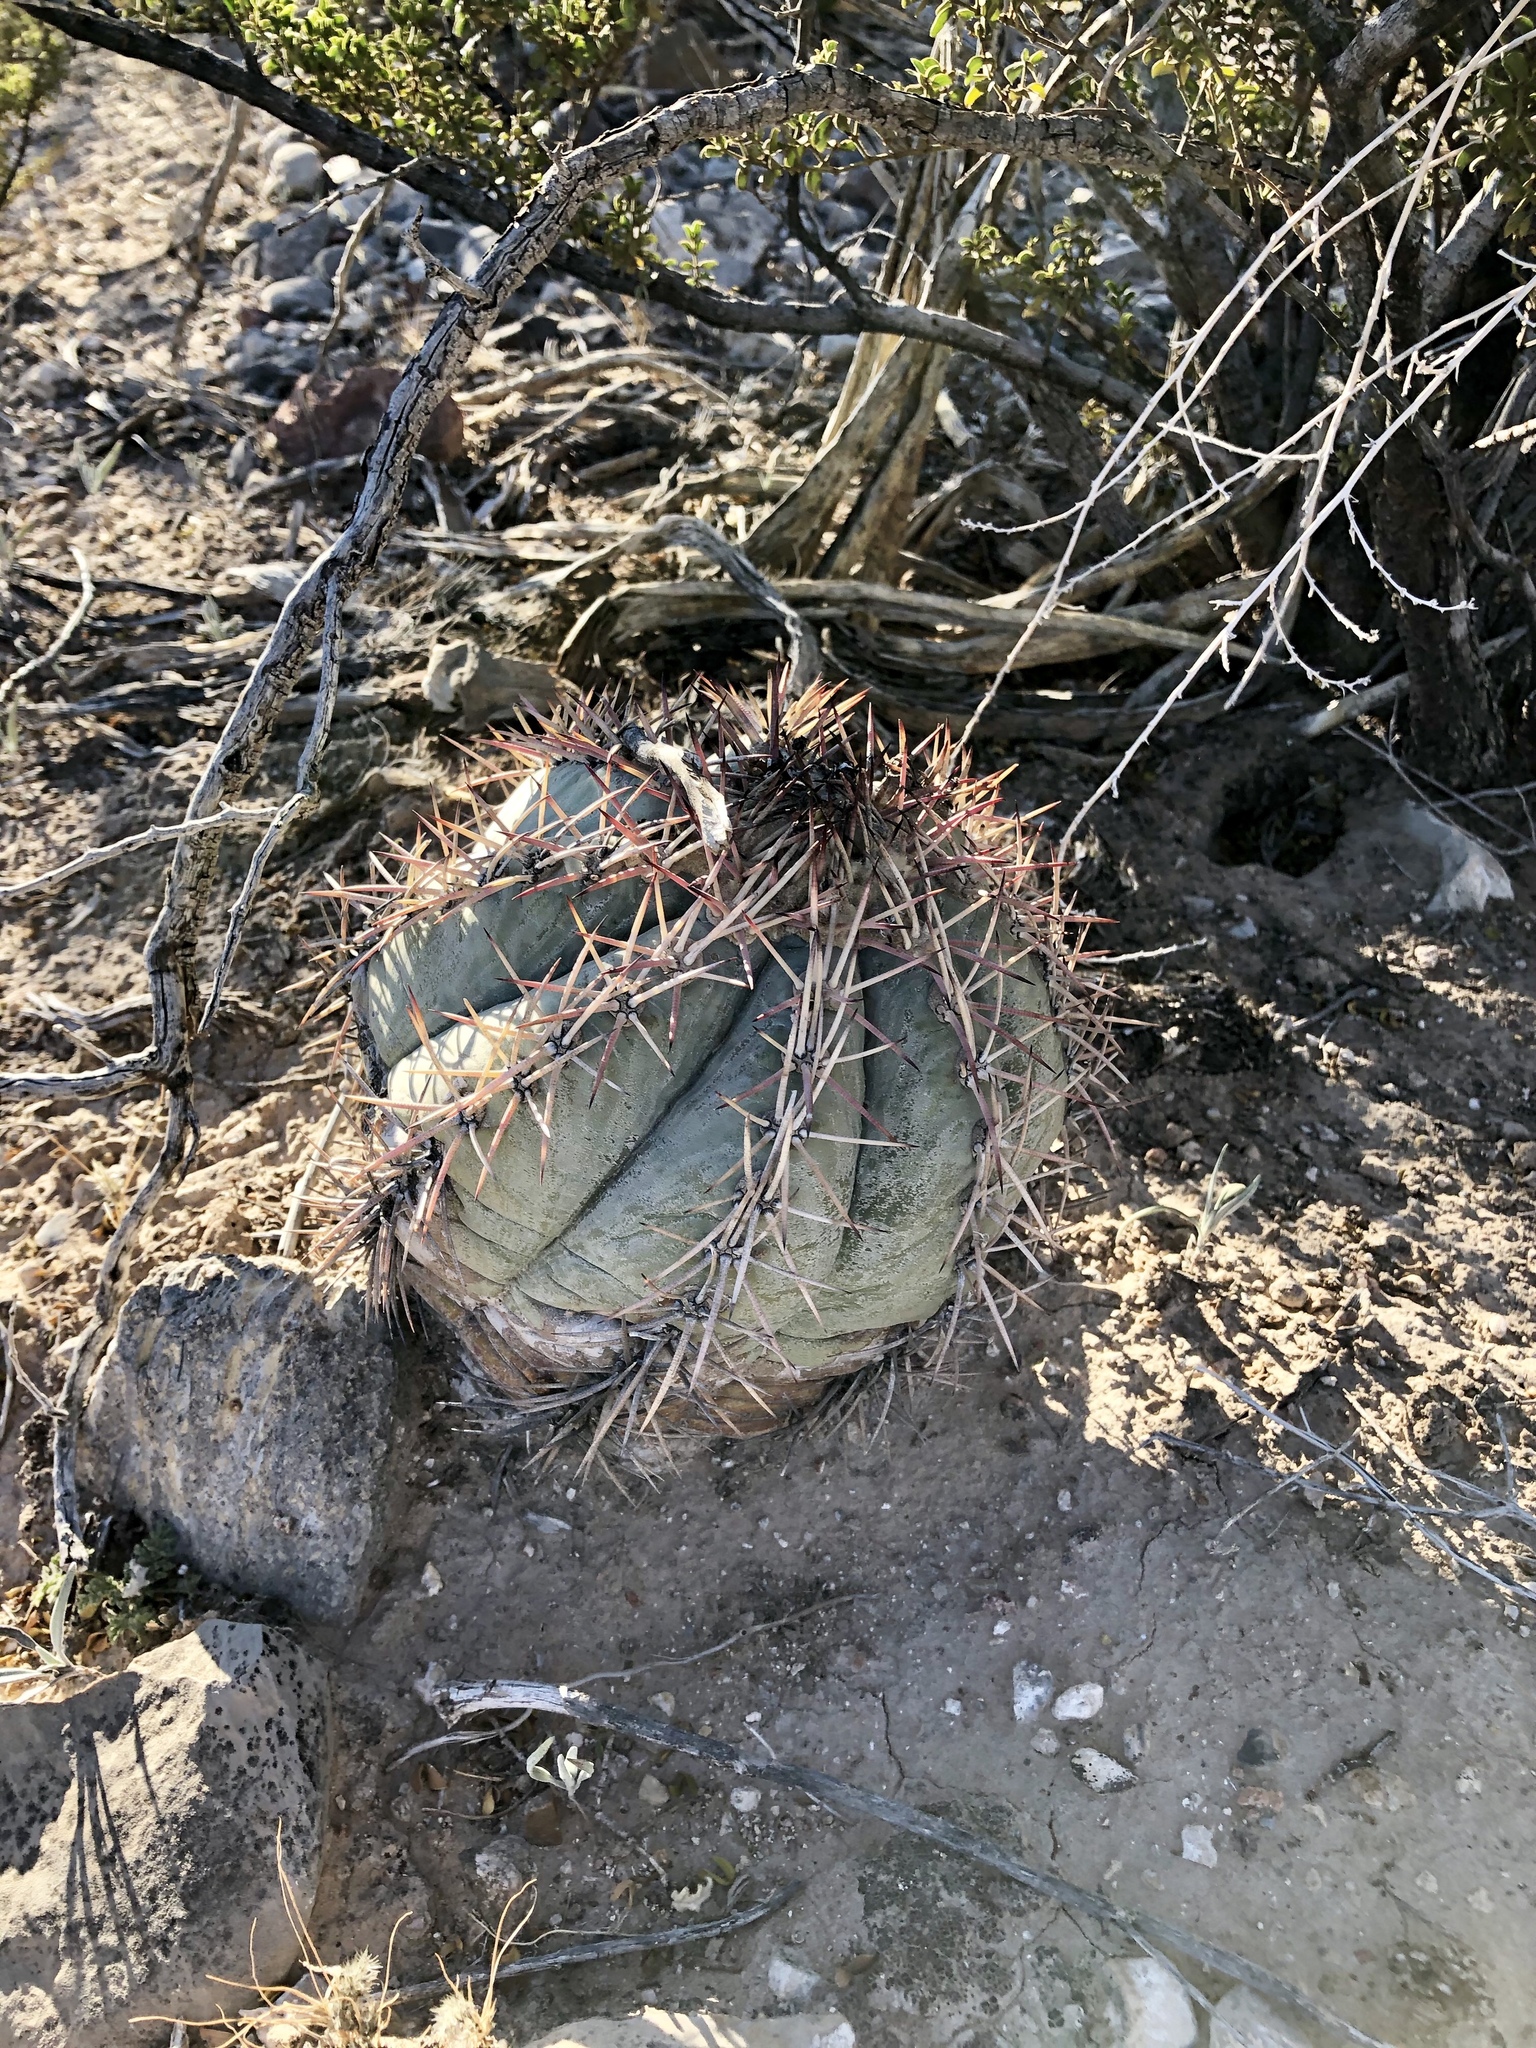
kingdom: Plantae
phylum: Tracheophyta
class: Magnoliopsida
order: Caryophyllales
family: Cactaceae
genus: Echinocactus
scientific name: Echinocactus horizonthalonius
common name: Devilshead
